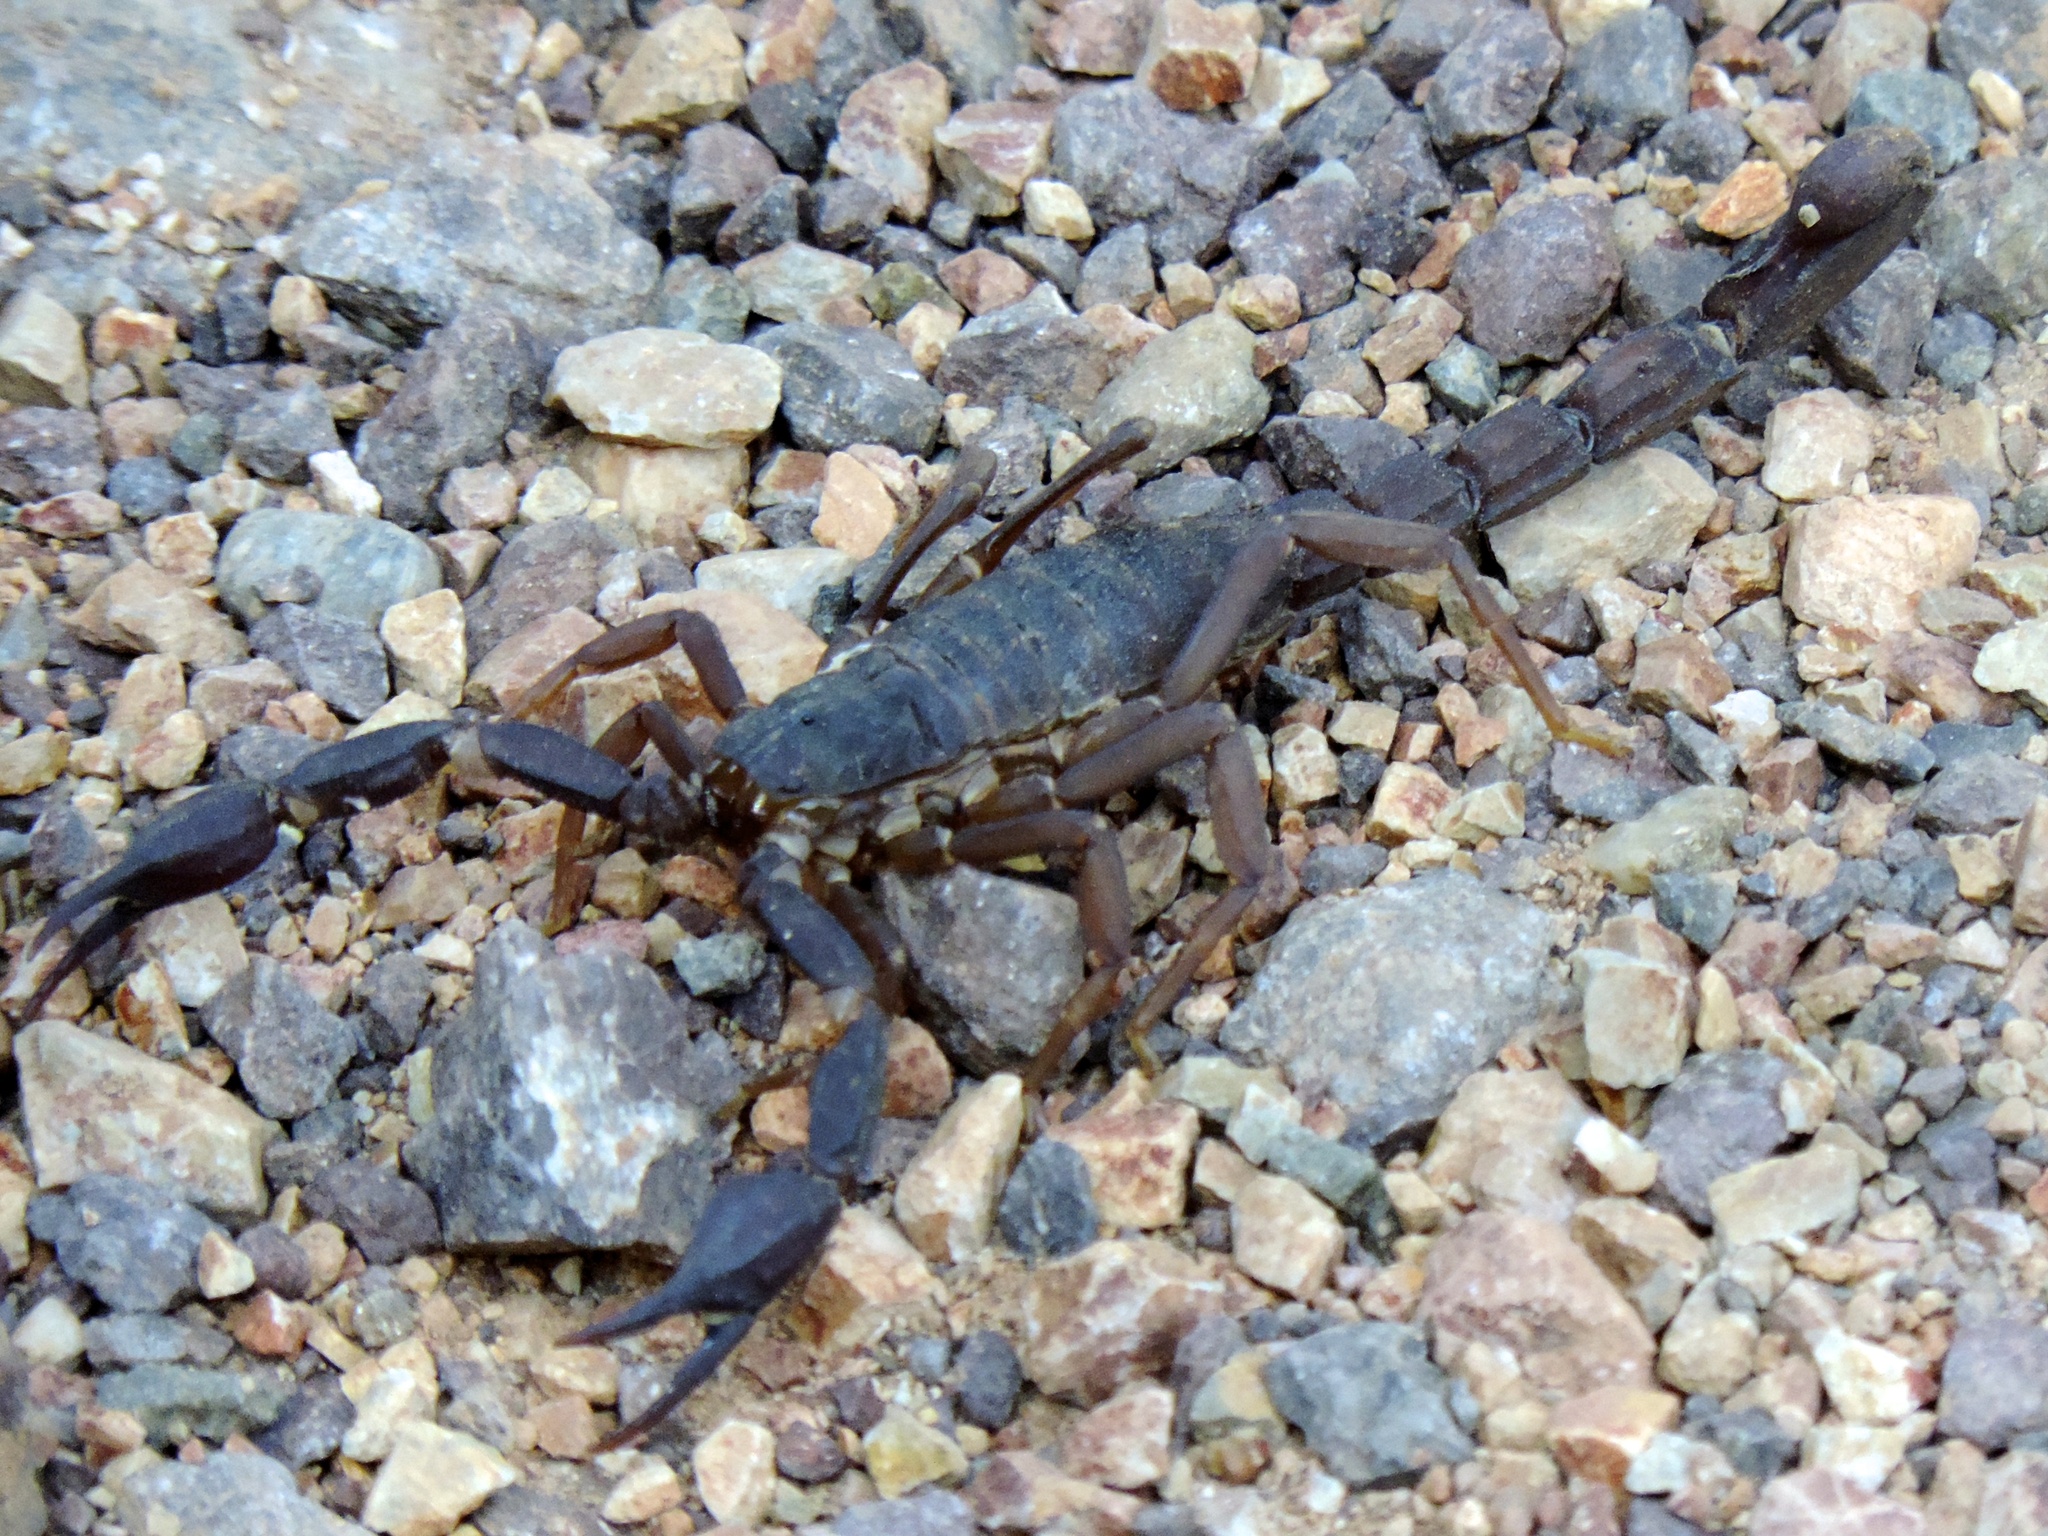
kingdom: Animalia
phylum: Arthropoda
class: Arachnida
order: Scorpiones
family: Vaejovidae
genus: Thorellius
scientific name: Thorellius
